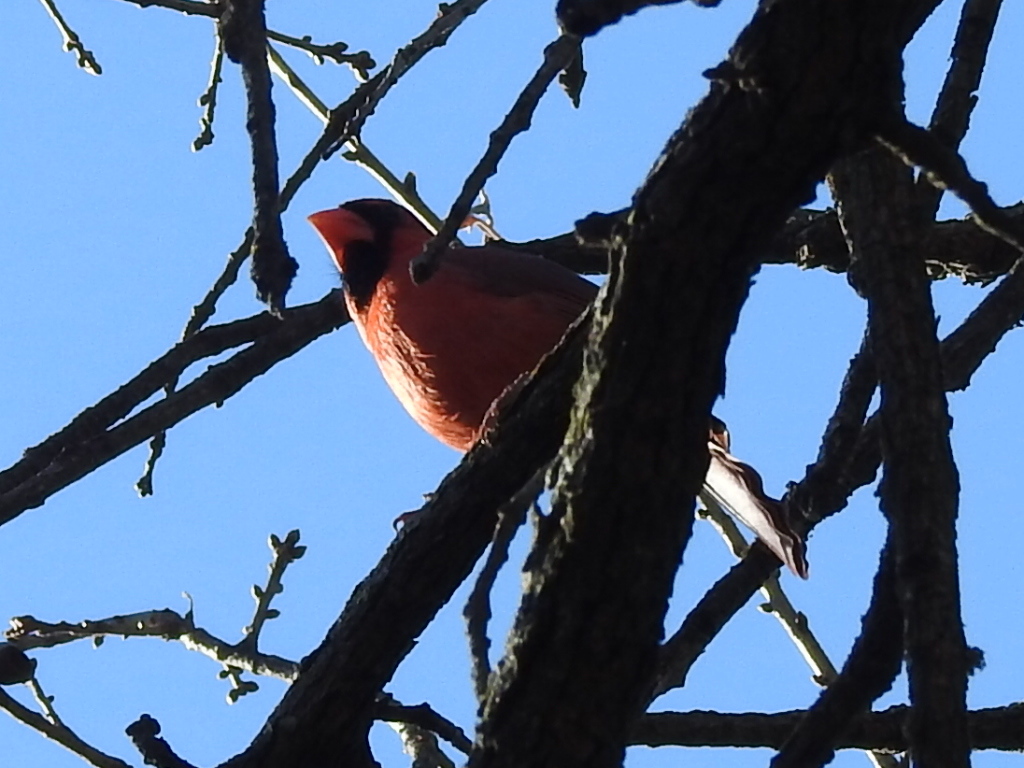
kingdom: Animalia
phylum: Chordata
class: Aves
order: Passeriformes
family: Cardinalidae
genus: Cardinalis
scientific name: Cardinalis cardinalis
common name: Northern cardinal
